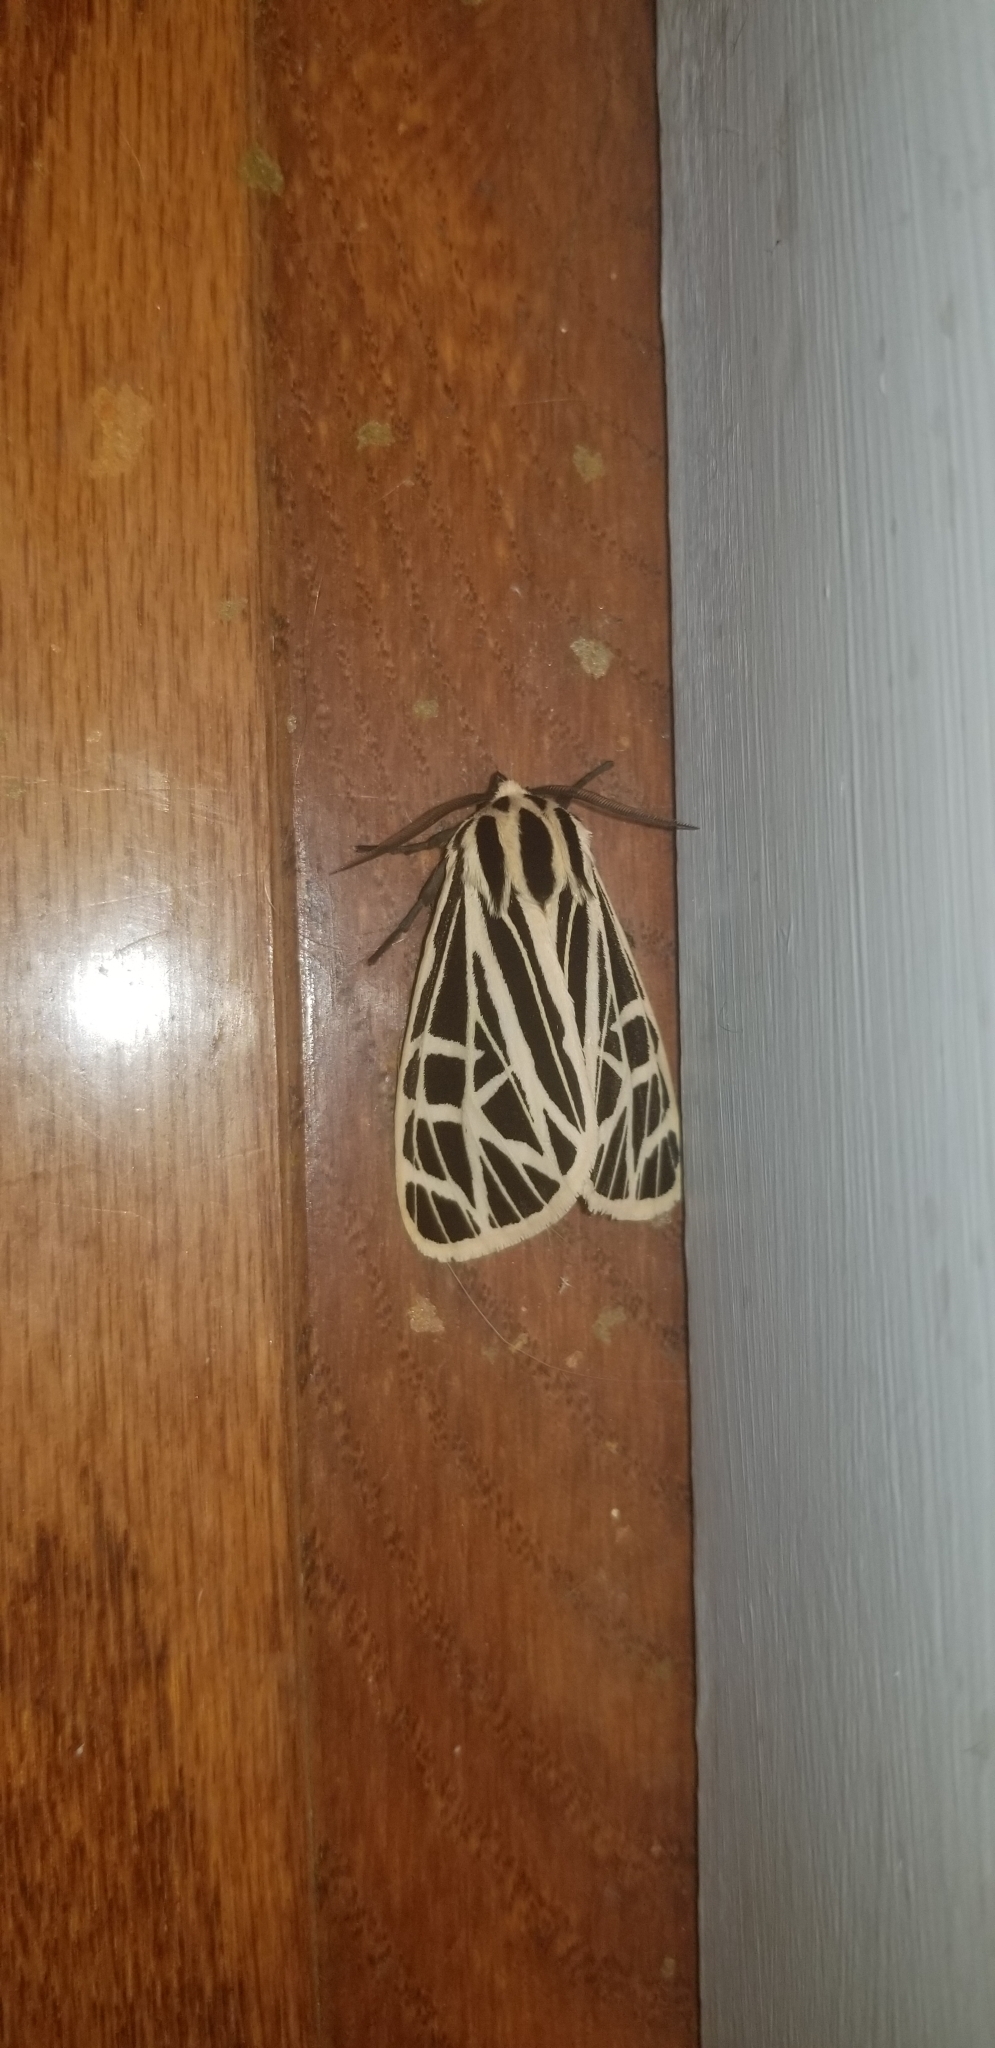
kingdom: Animalia
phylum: Arthropoda
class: Insecta
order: Lepidoptera
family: Erebidae
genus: Grammia
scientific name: Grammia virgo
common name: Virgin tiger moth
